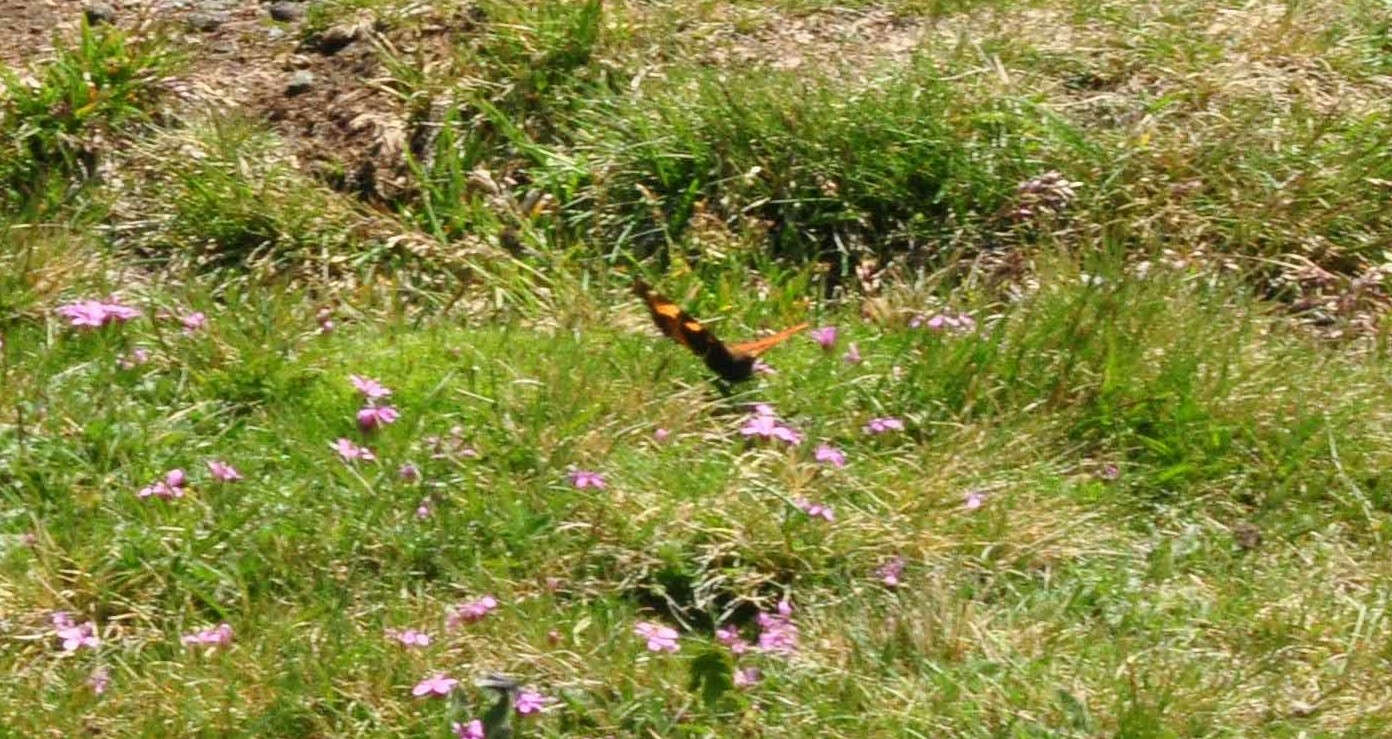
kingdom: Animalia
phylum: Arthropoda
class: Insecta
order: Lepidoptera
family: Nymphalidae
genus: Aglais
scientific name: Aglais urticae
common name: Small tortoiseshell
